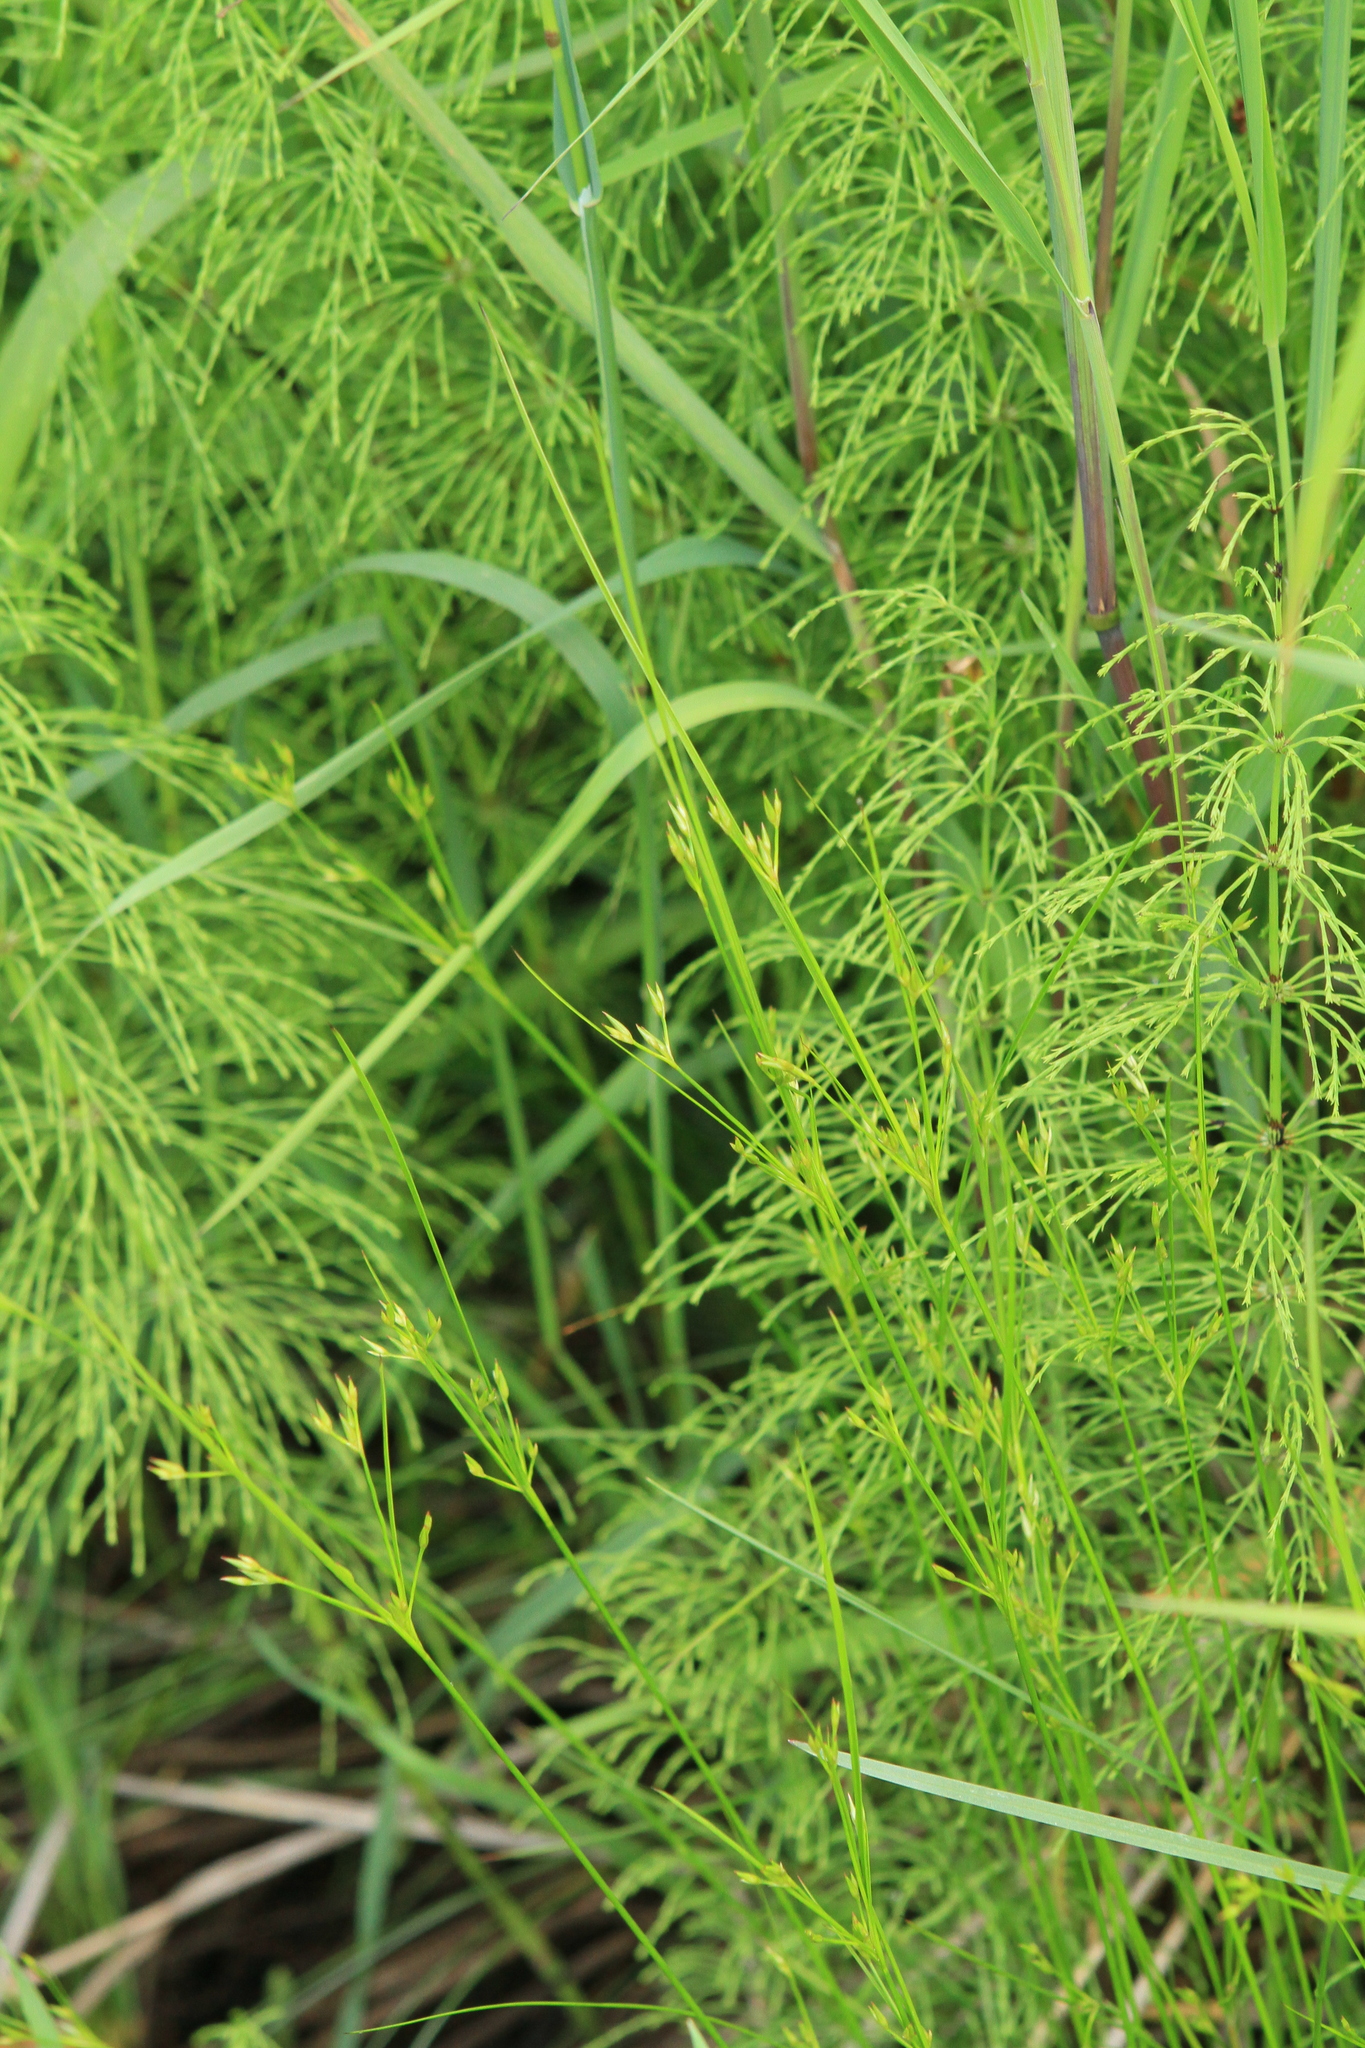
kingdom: Plantae
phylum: Tracheophyta
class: Liliopsida
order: Poales
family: Juncaceae
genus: Juncus
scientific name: Juncus tenuis
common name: Slender rush
